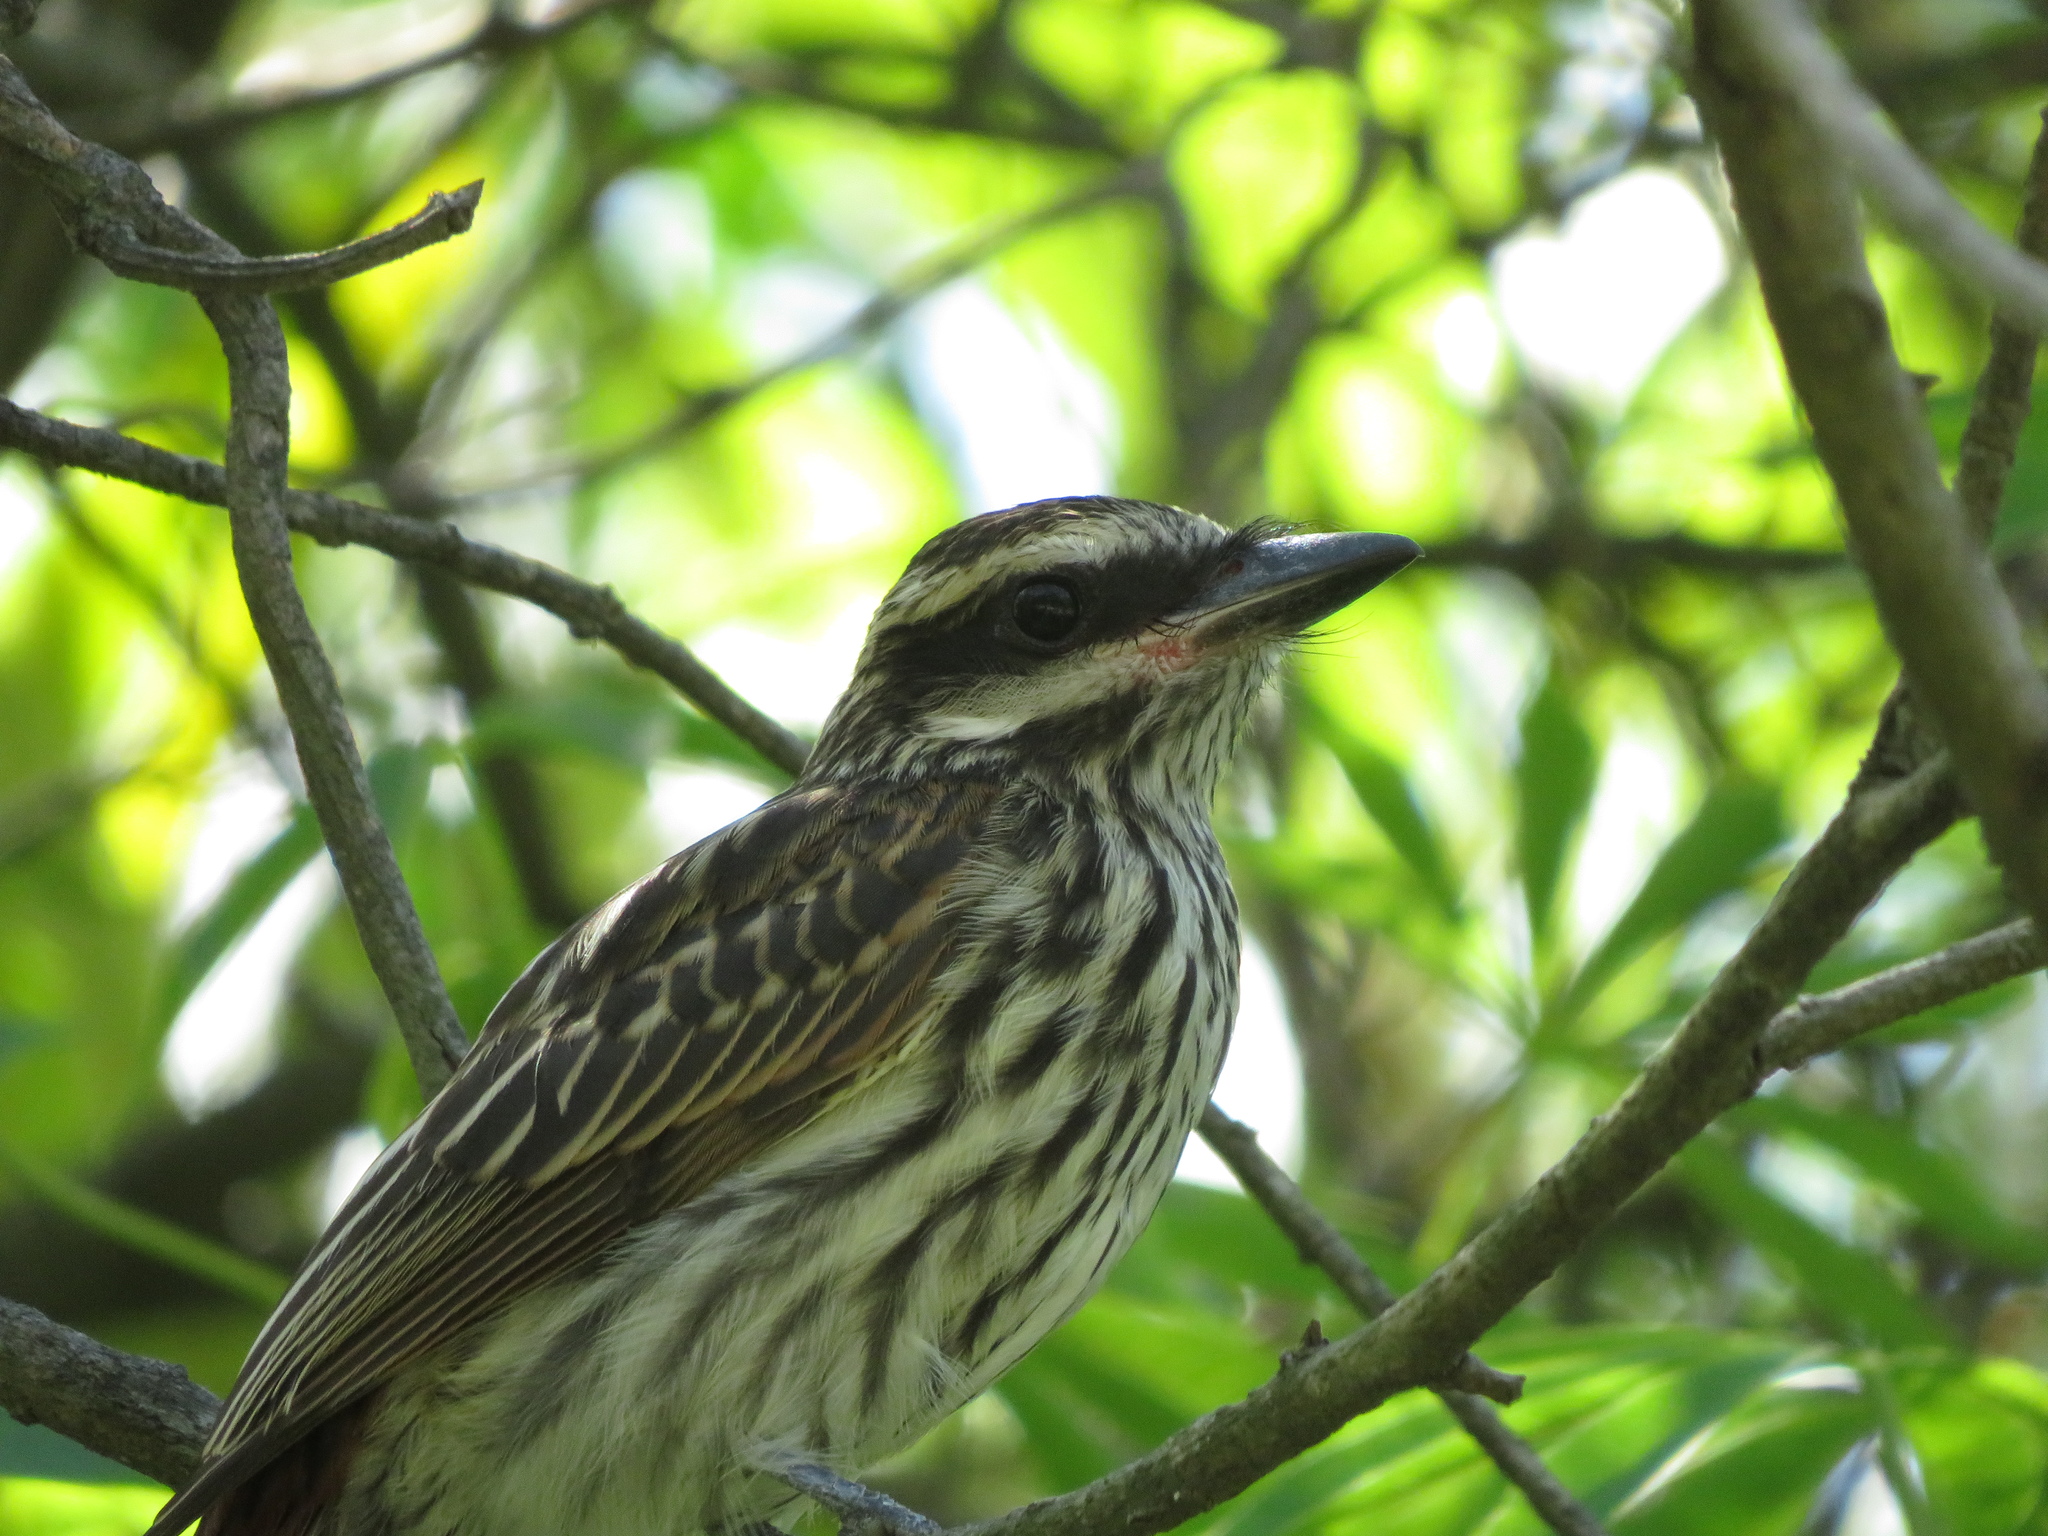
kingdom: Animalia
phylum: Chordata
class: Aves
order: Passeriformes
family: Tyrannidae
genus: Myiodynastes
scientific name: Myiodynastes maculatus
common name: Streaked flycatcher
